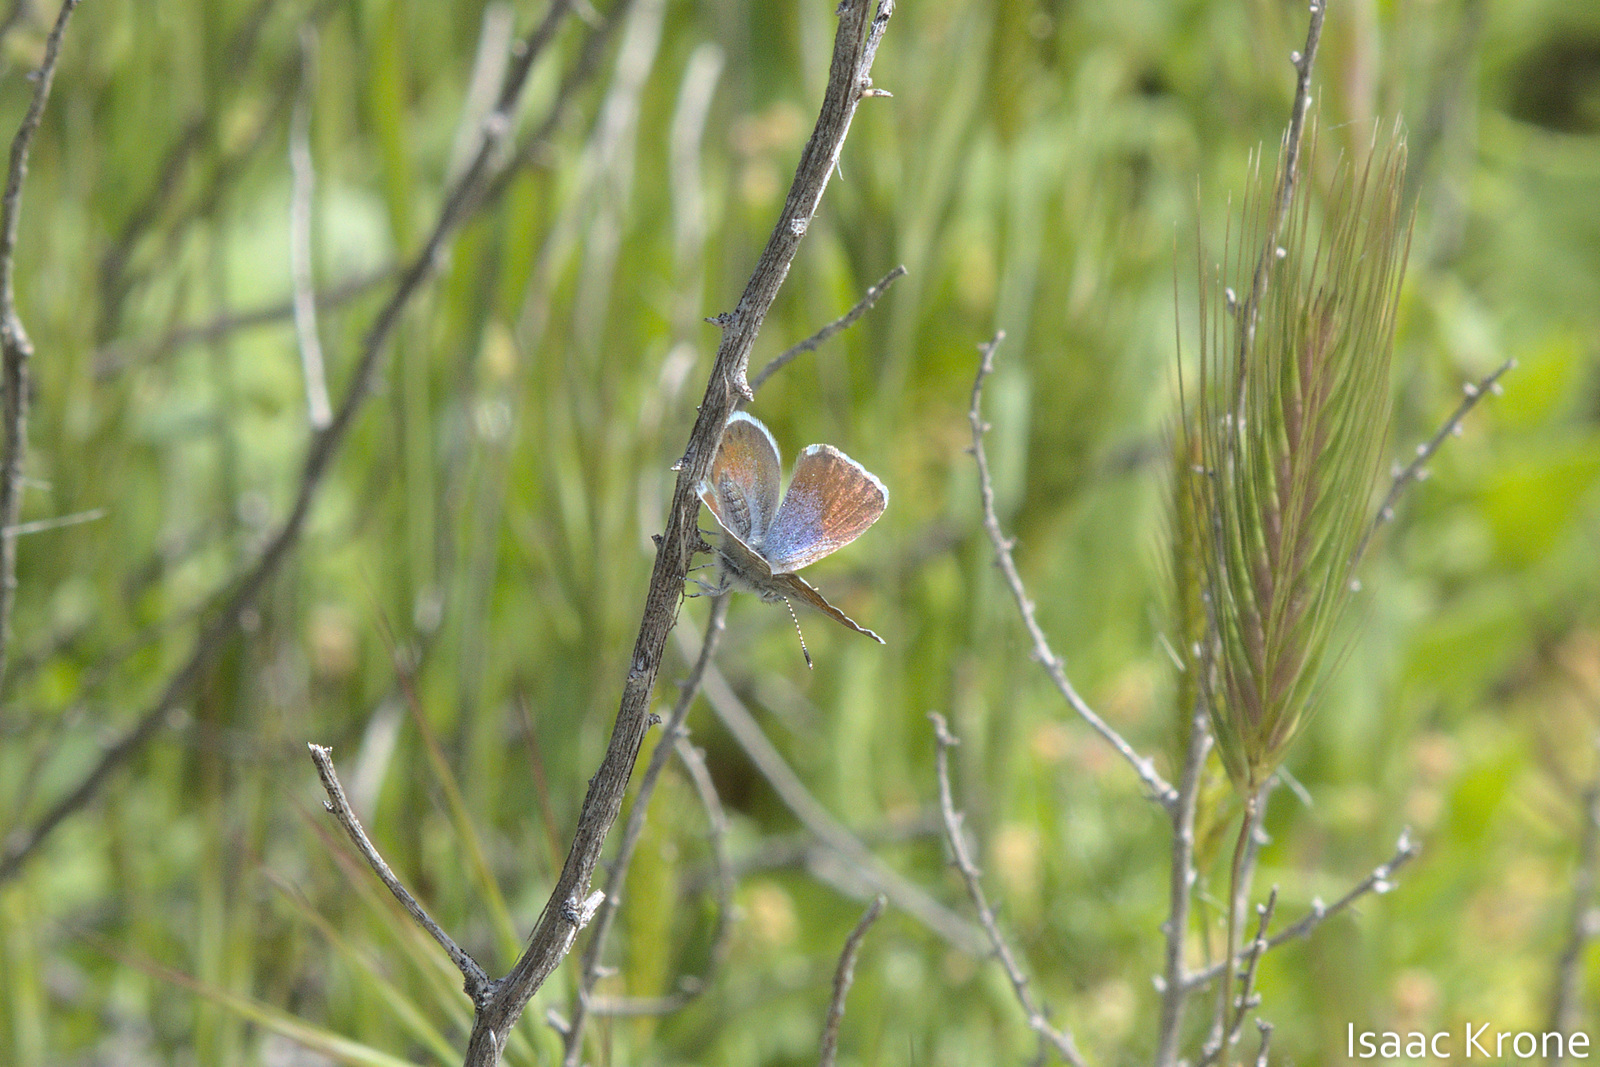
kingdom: Animalia
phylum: Arthropoda
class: Insecta
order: Lepidoptera
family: Lycaenidae
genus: Brephidium
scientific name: Brephidium exilis
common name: Pygmy blue
